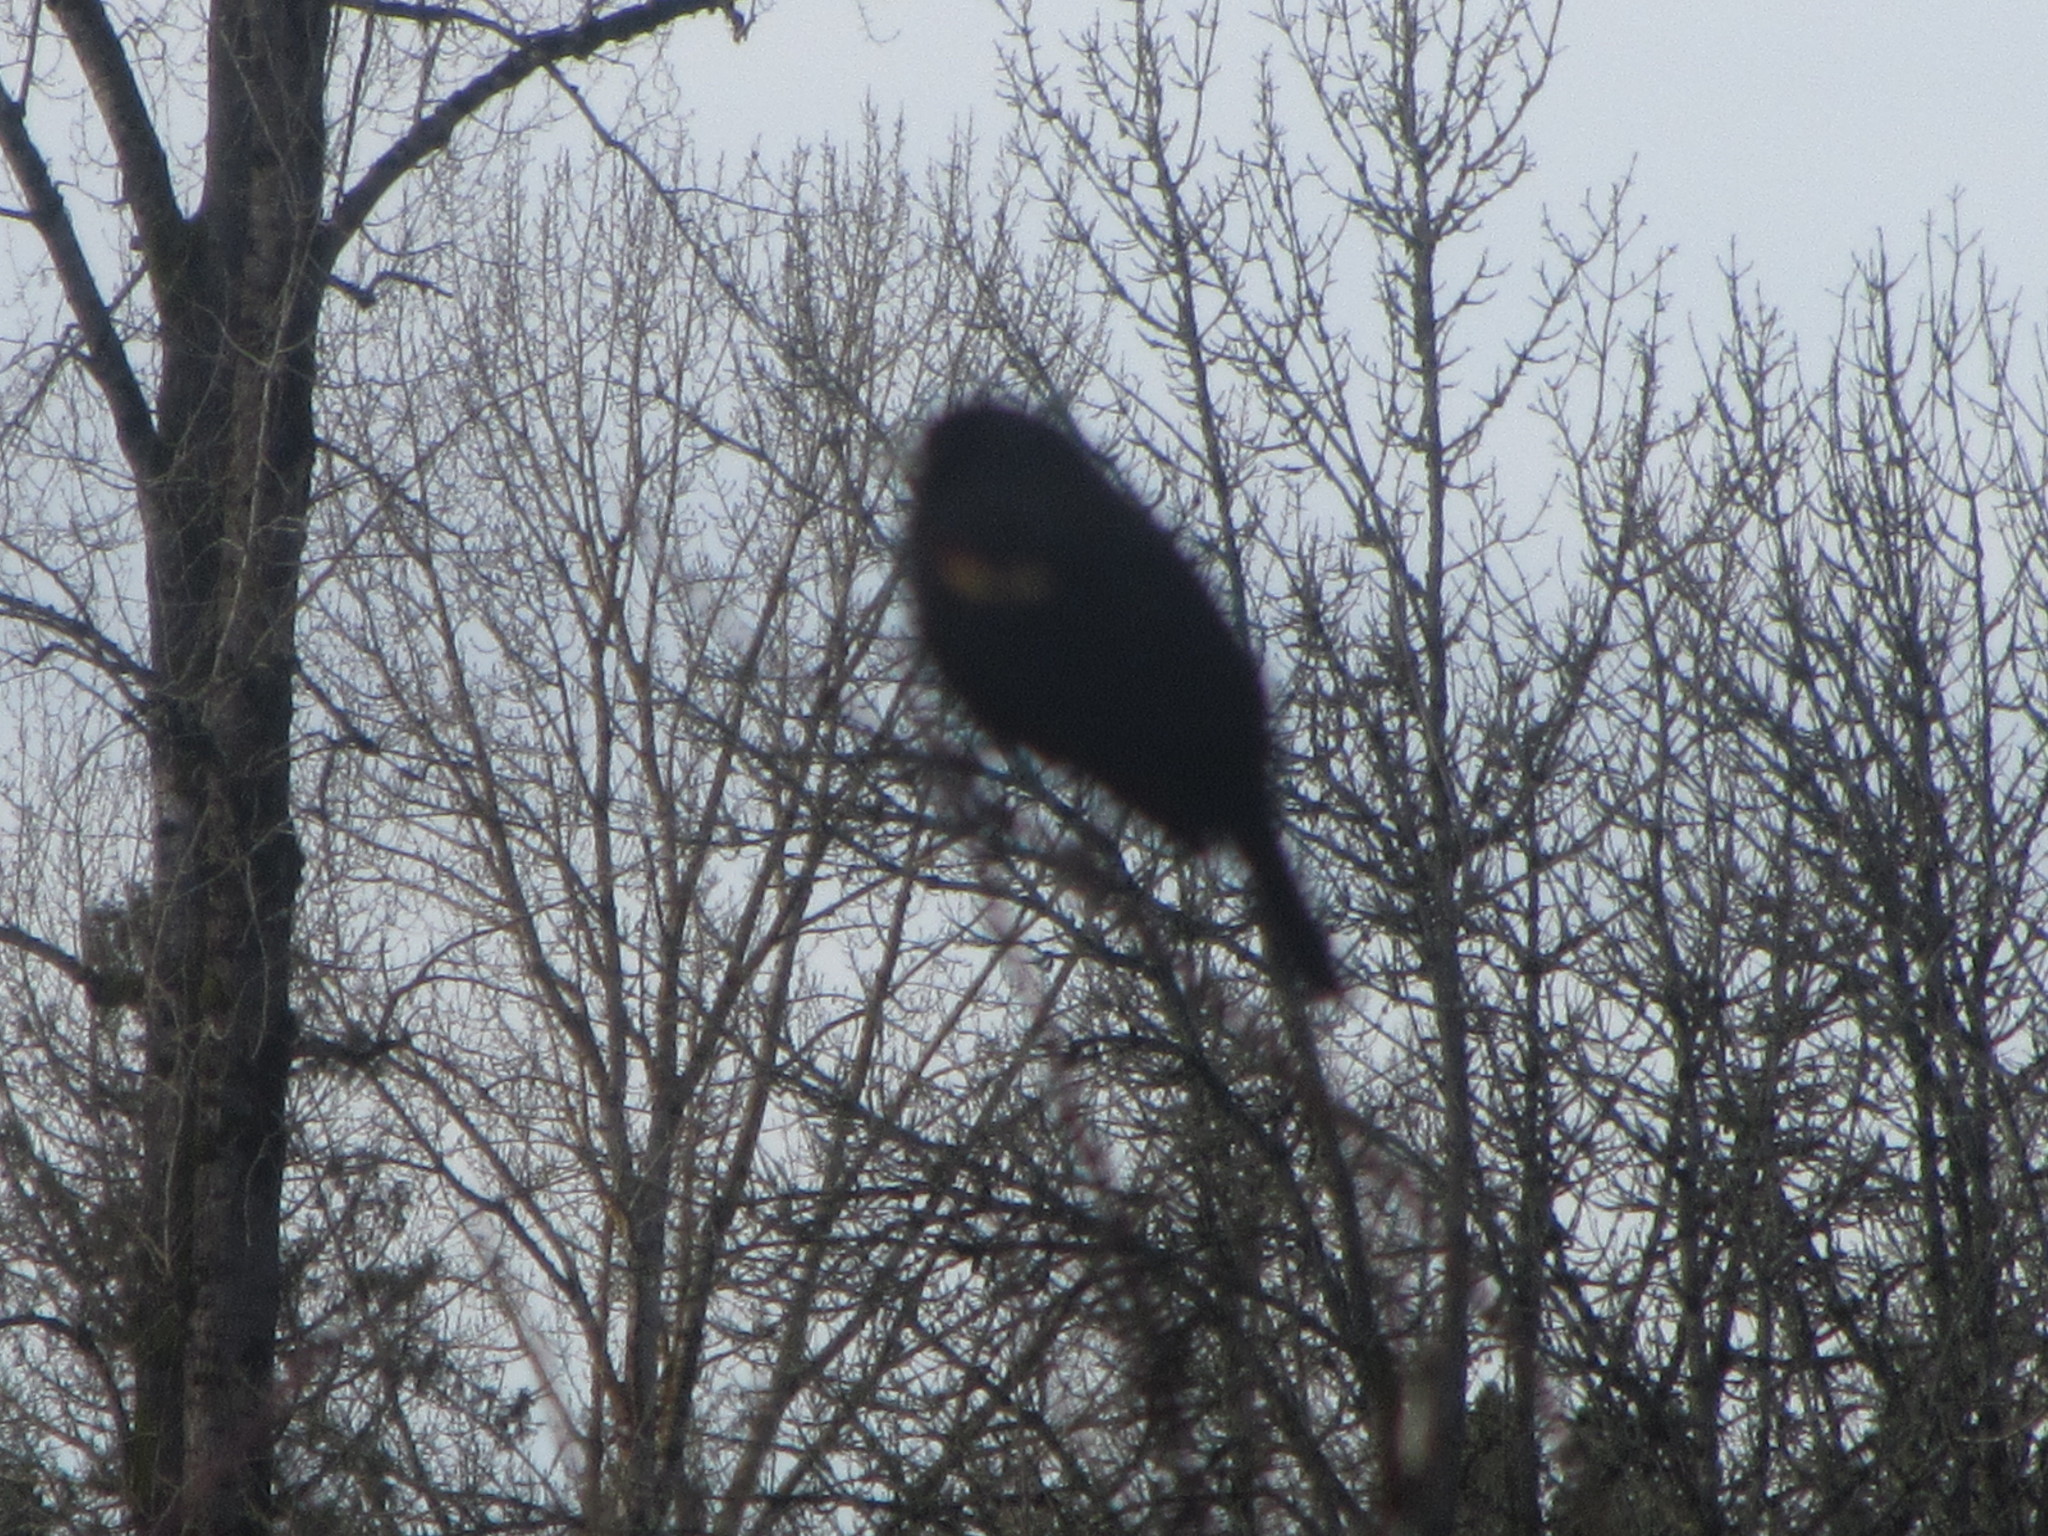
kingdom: Animalia
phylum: Chordata
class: Aves
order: Passeriformes
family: Icteridae
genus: Agelaius
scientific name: Agelaius phoeniceus
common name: Red-winged blackbird
